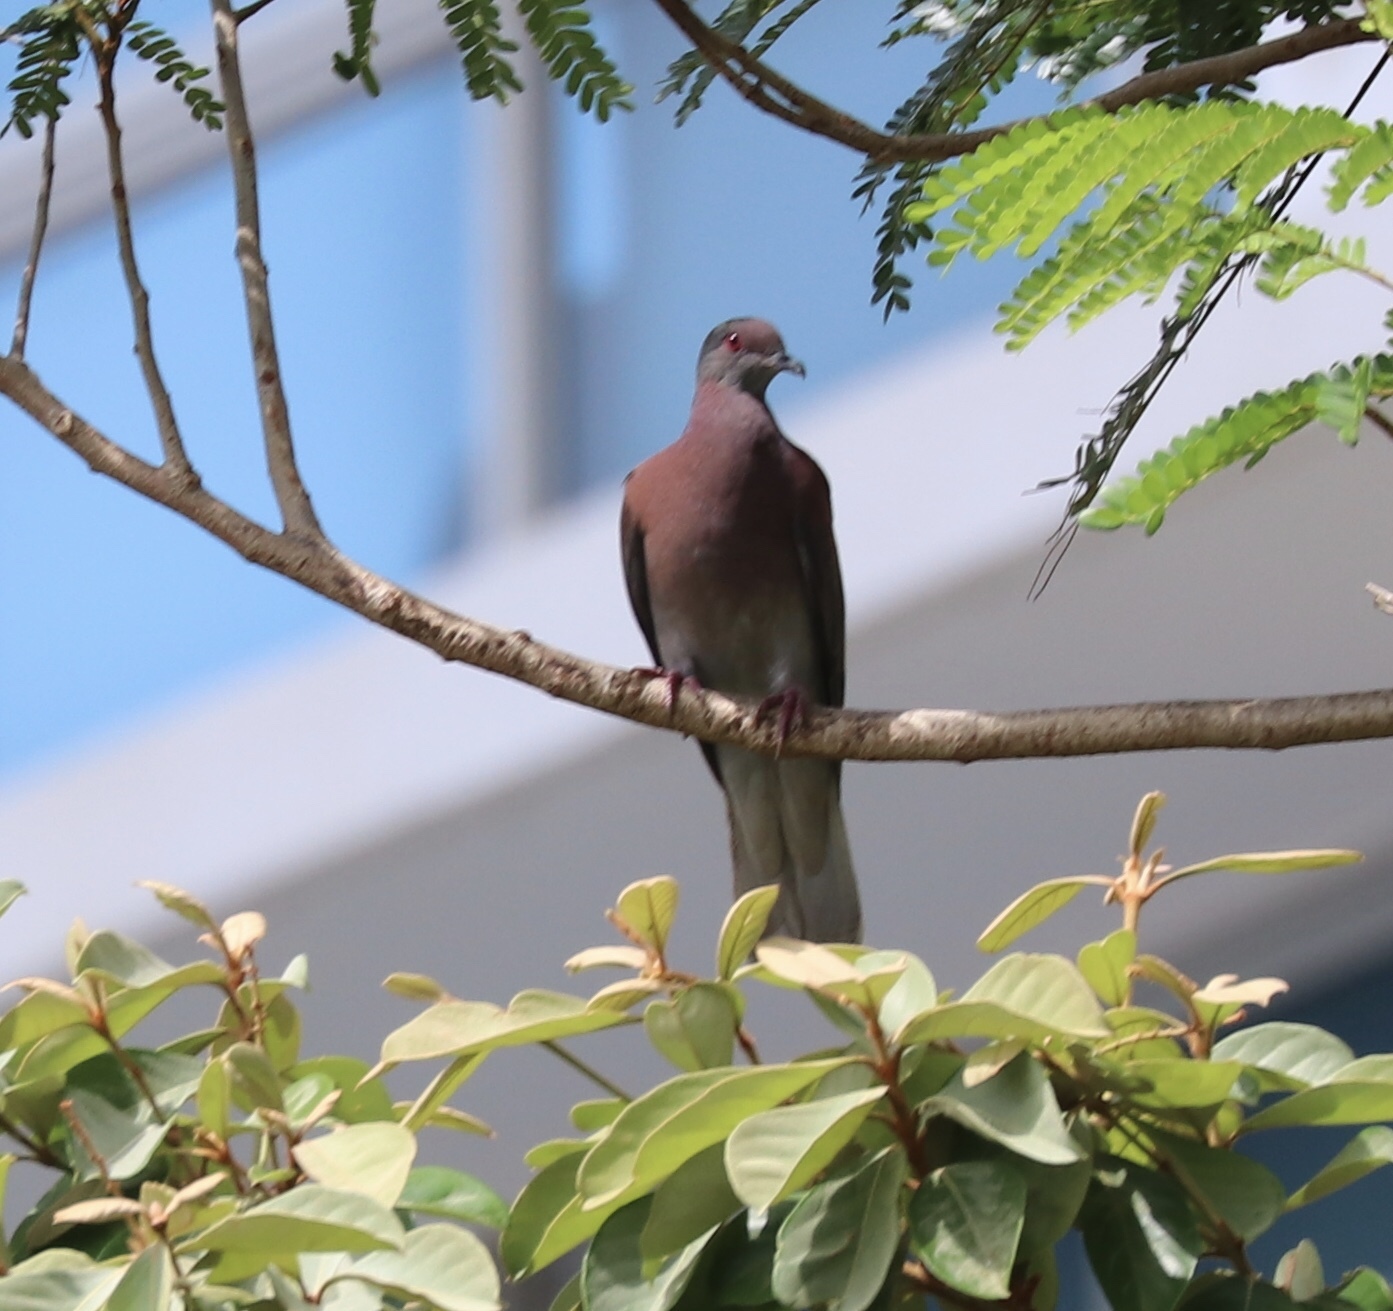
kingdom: Animalia
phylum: Chordata
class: Aves
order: Columbiformes
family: Columbidae
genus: Patagioenas
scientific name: Patagioenas cayennensis
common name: Pale-vented pigeon
